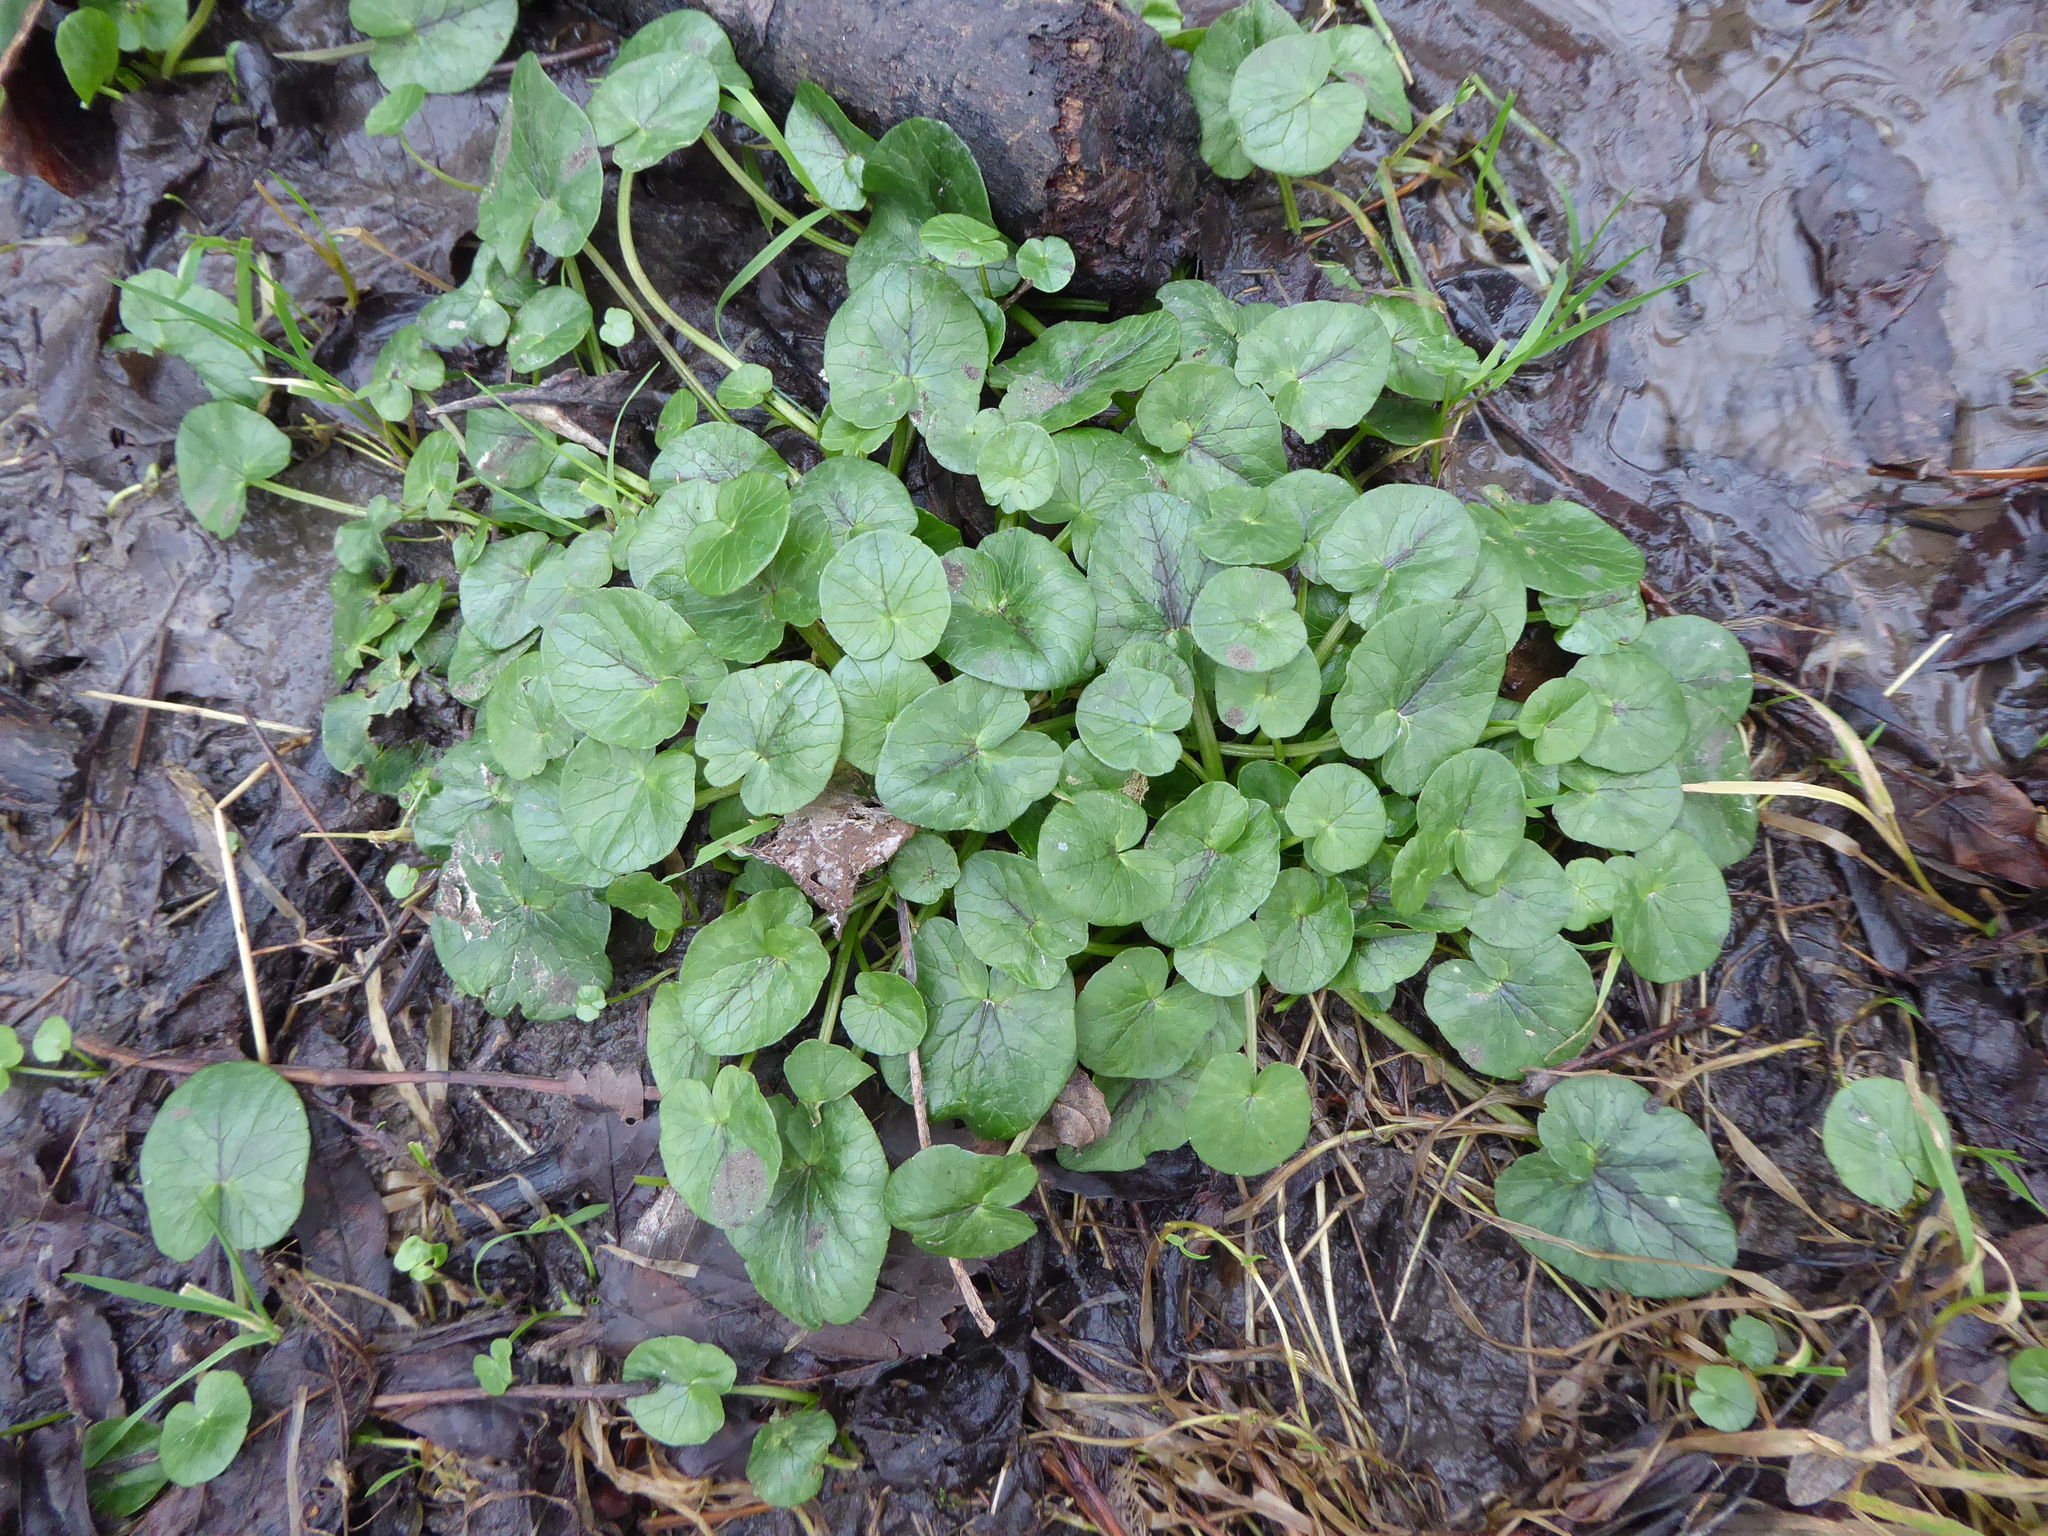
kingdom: Plantae
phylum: Tracheophyta
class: Magnoliopsida
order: Ranunculales
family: Ranunculaceae
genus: Ficaria
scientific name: Ficaria verna
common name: Lesser celandine
